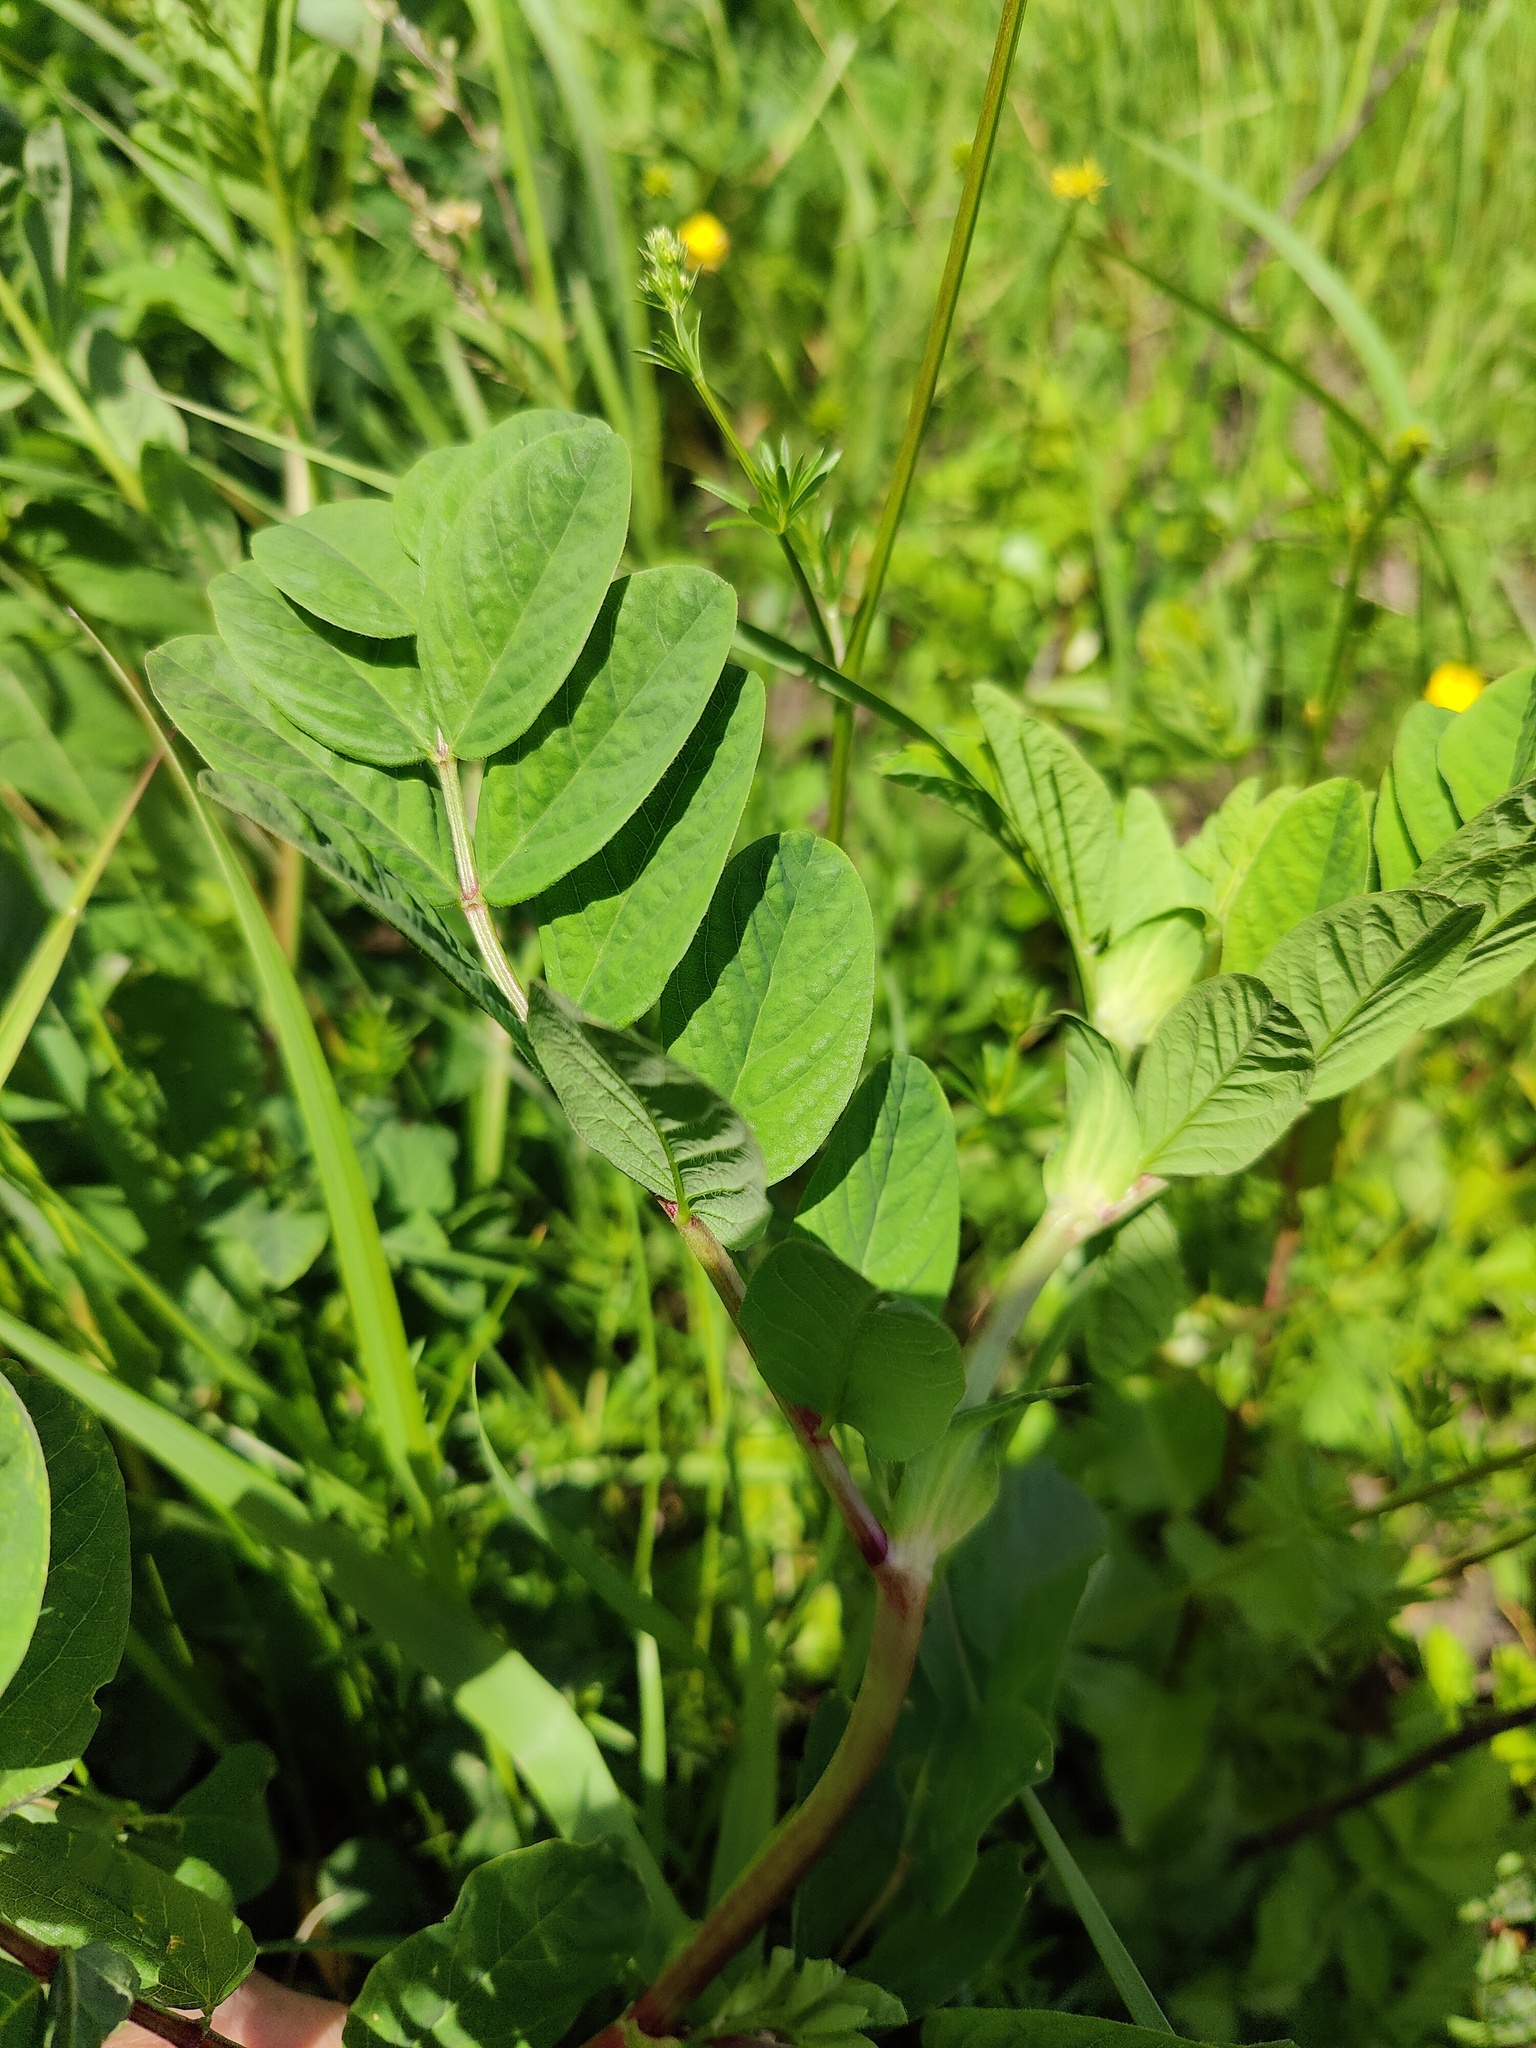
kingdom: Plantae
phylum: Tracheophyta
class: Magnoliopsida
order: Fabales
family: Fabaceae
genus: Astragalus
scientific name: Astragalus glycyphyllos
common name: Wild liquorice
